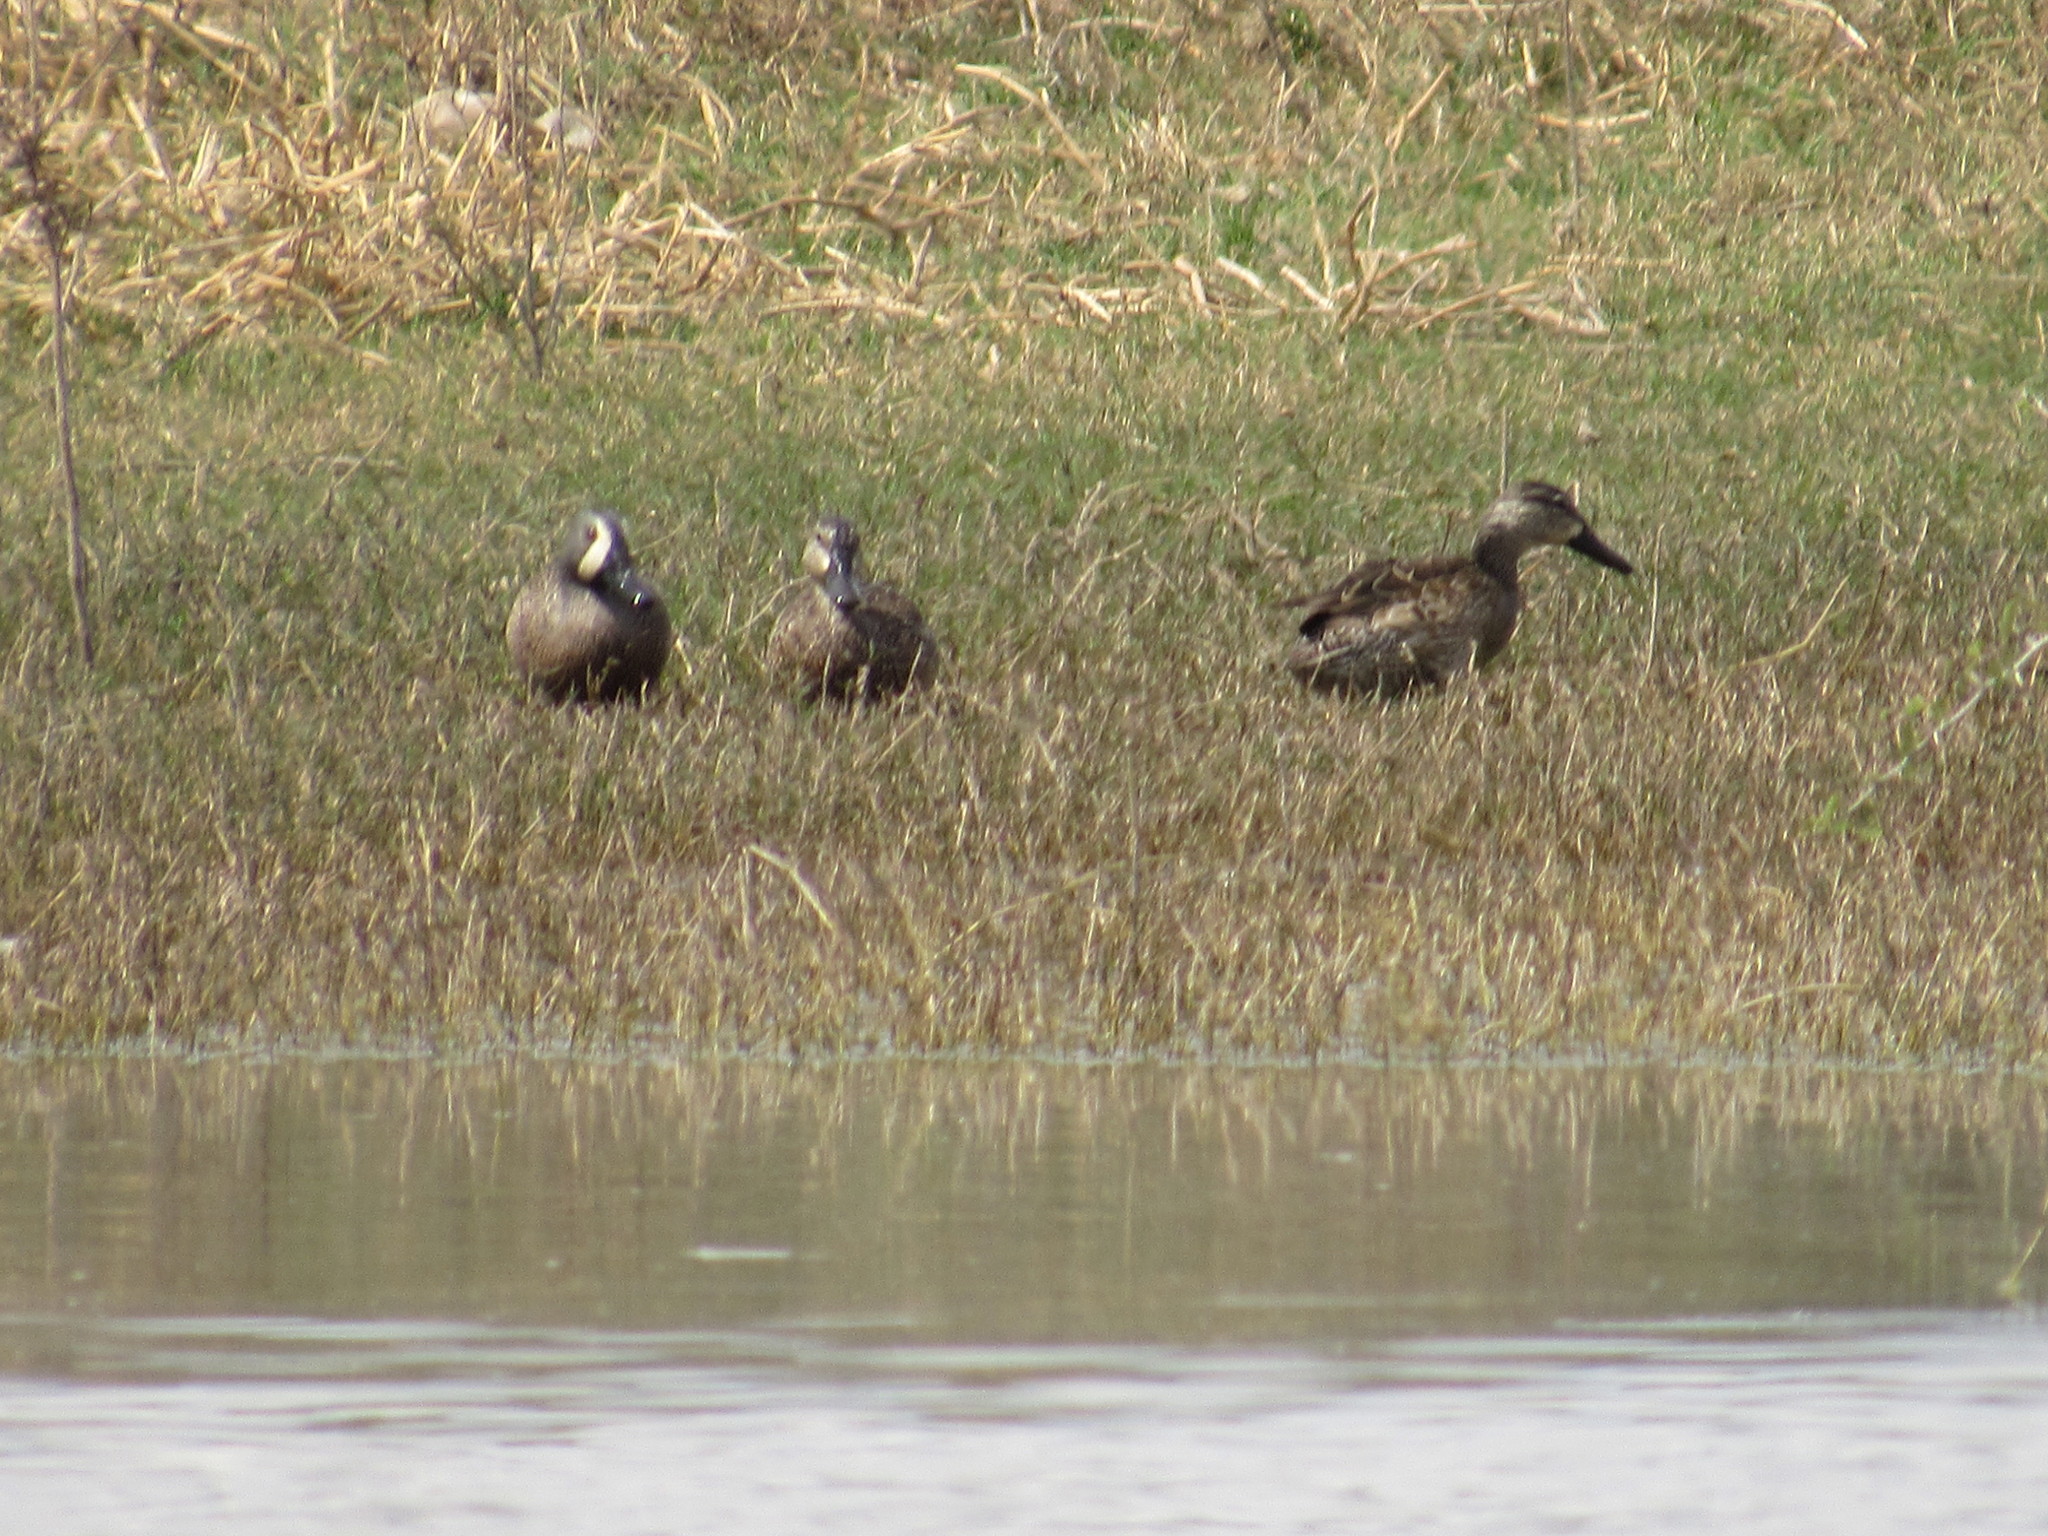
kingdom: Animalia
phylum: Chordata
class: Aves
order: Anseriformes
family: Anatidae
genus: Spatula
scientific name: Spatula discors
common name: Blue-winged teal
